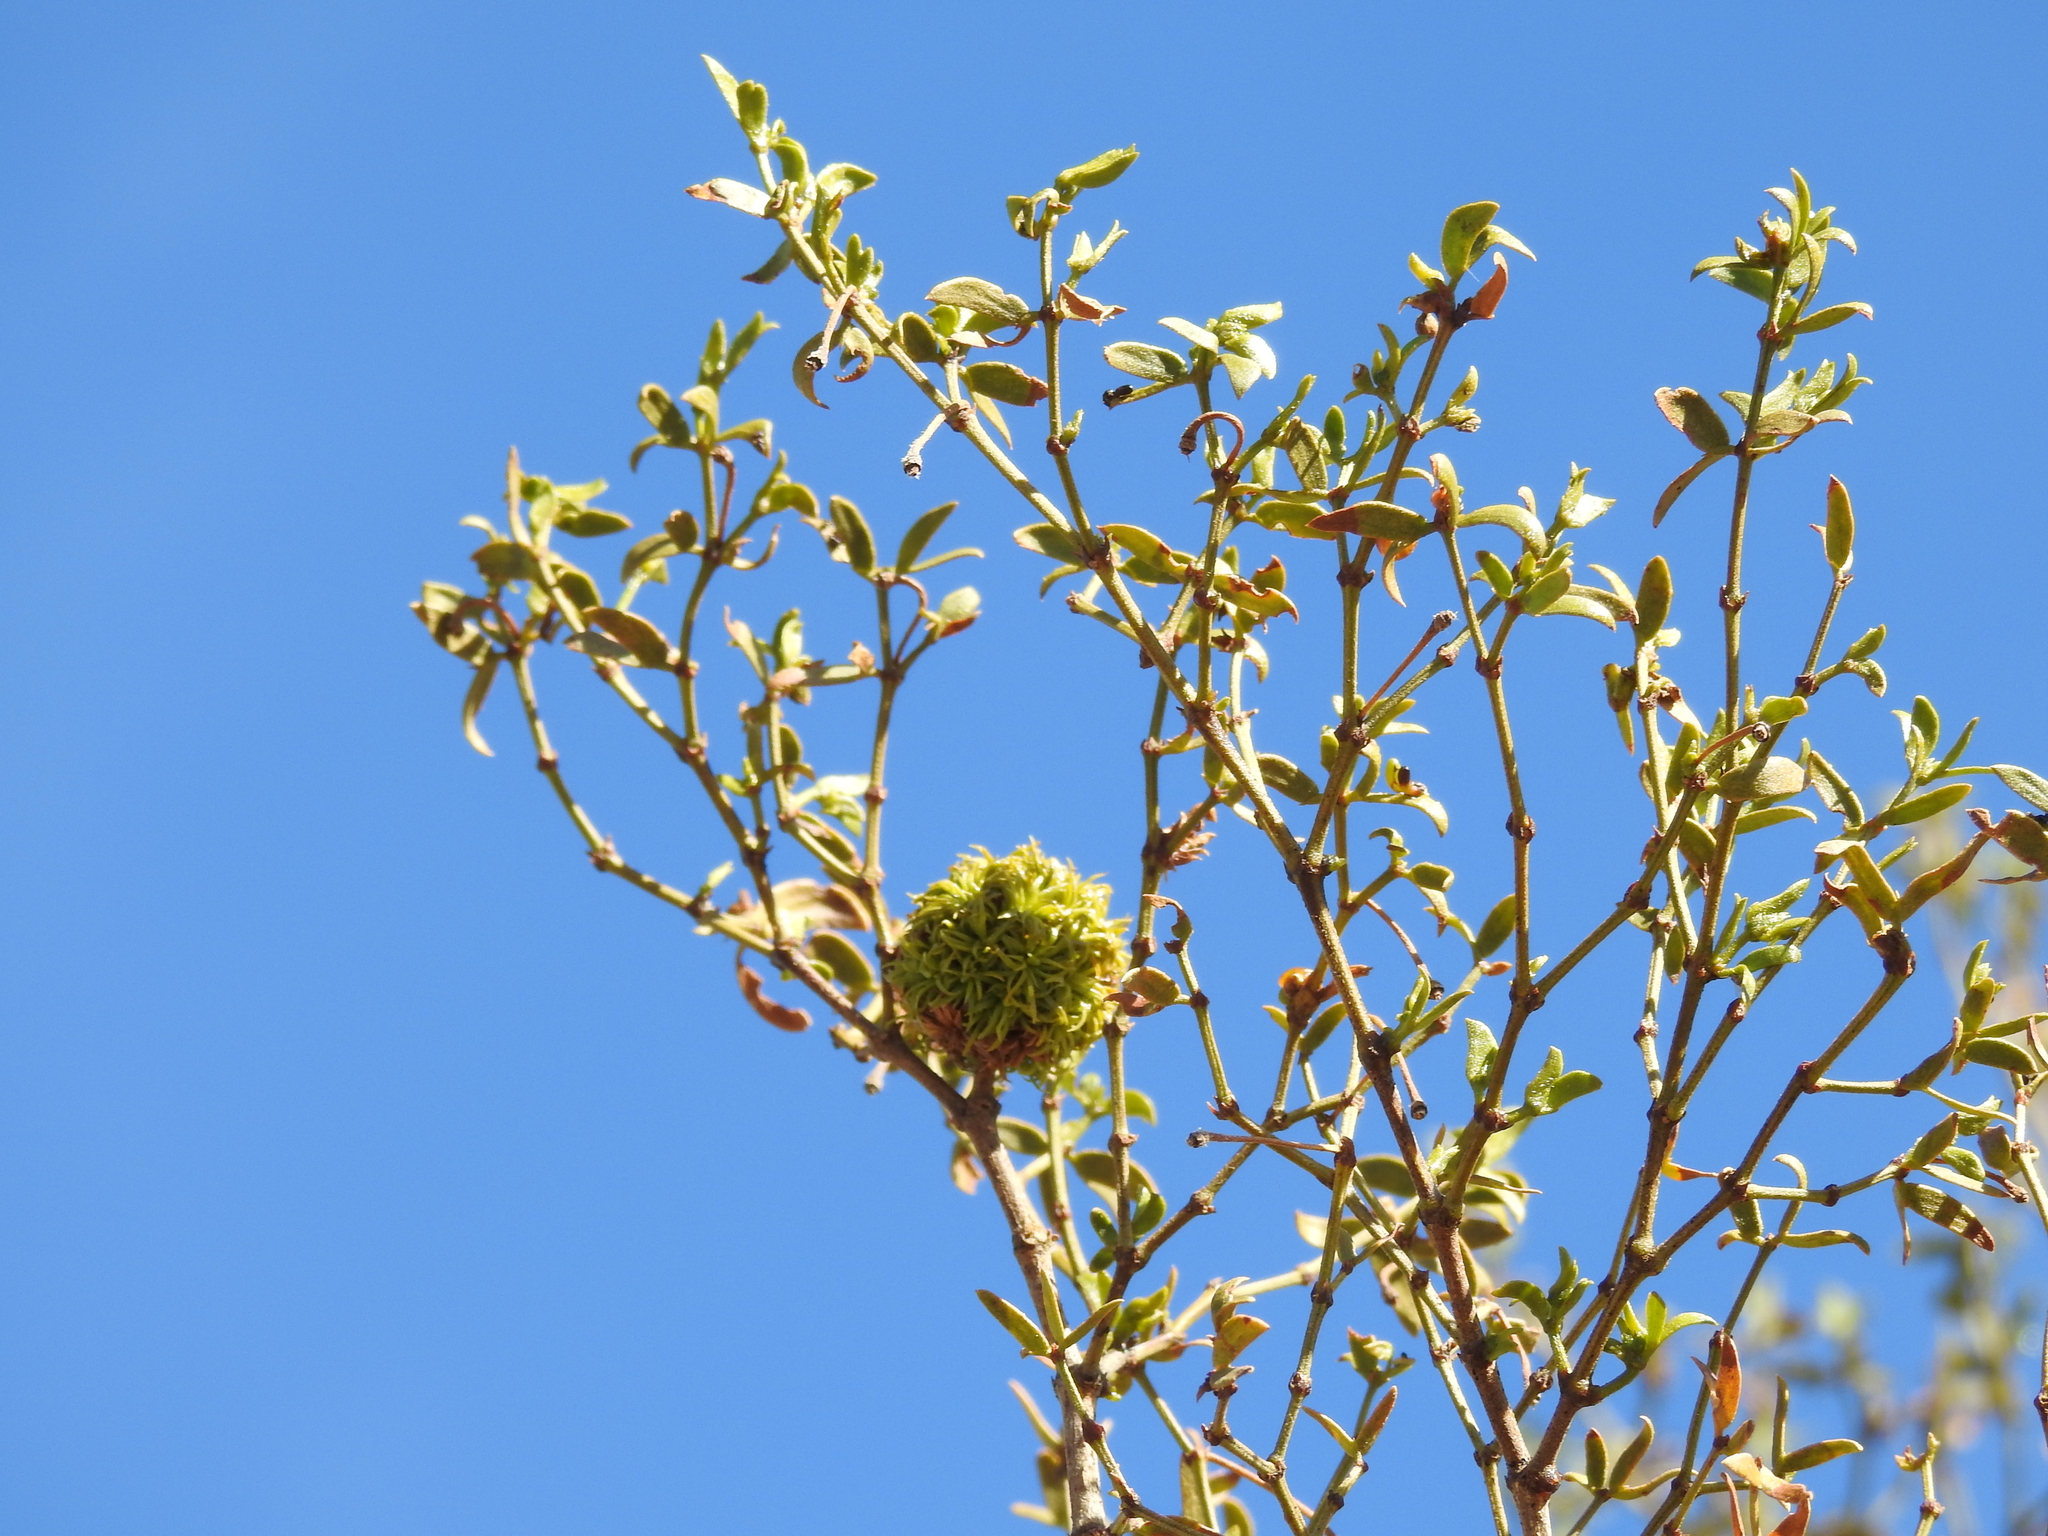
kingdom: Animalia
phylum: Arthropoda
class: Insecta
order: Diptera
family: Cecidomyiidae
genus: Asphondylia
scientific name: Asphondylia auripila
